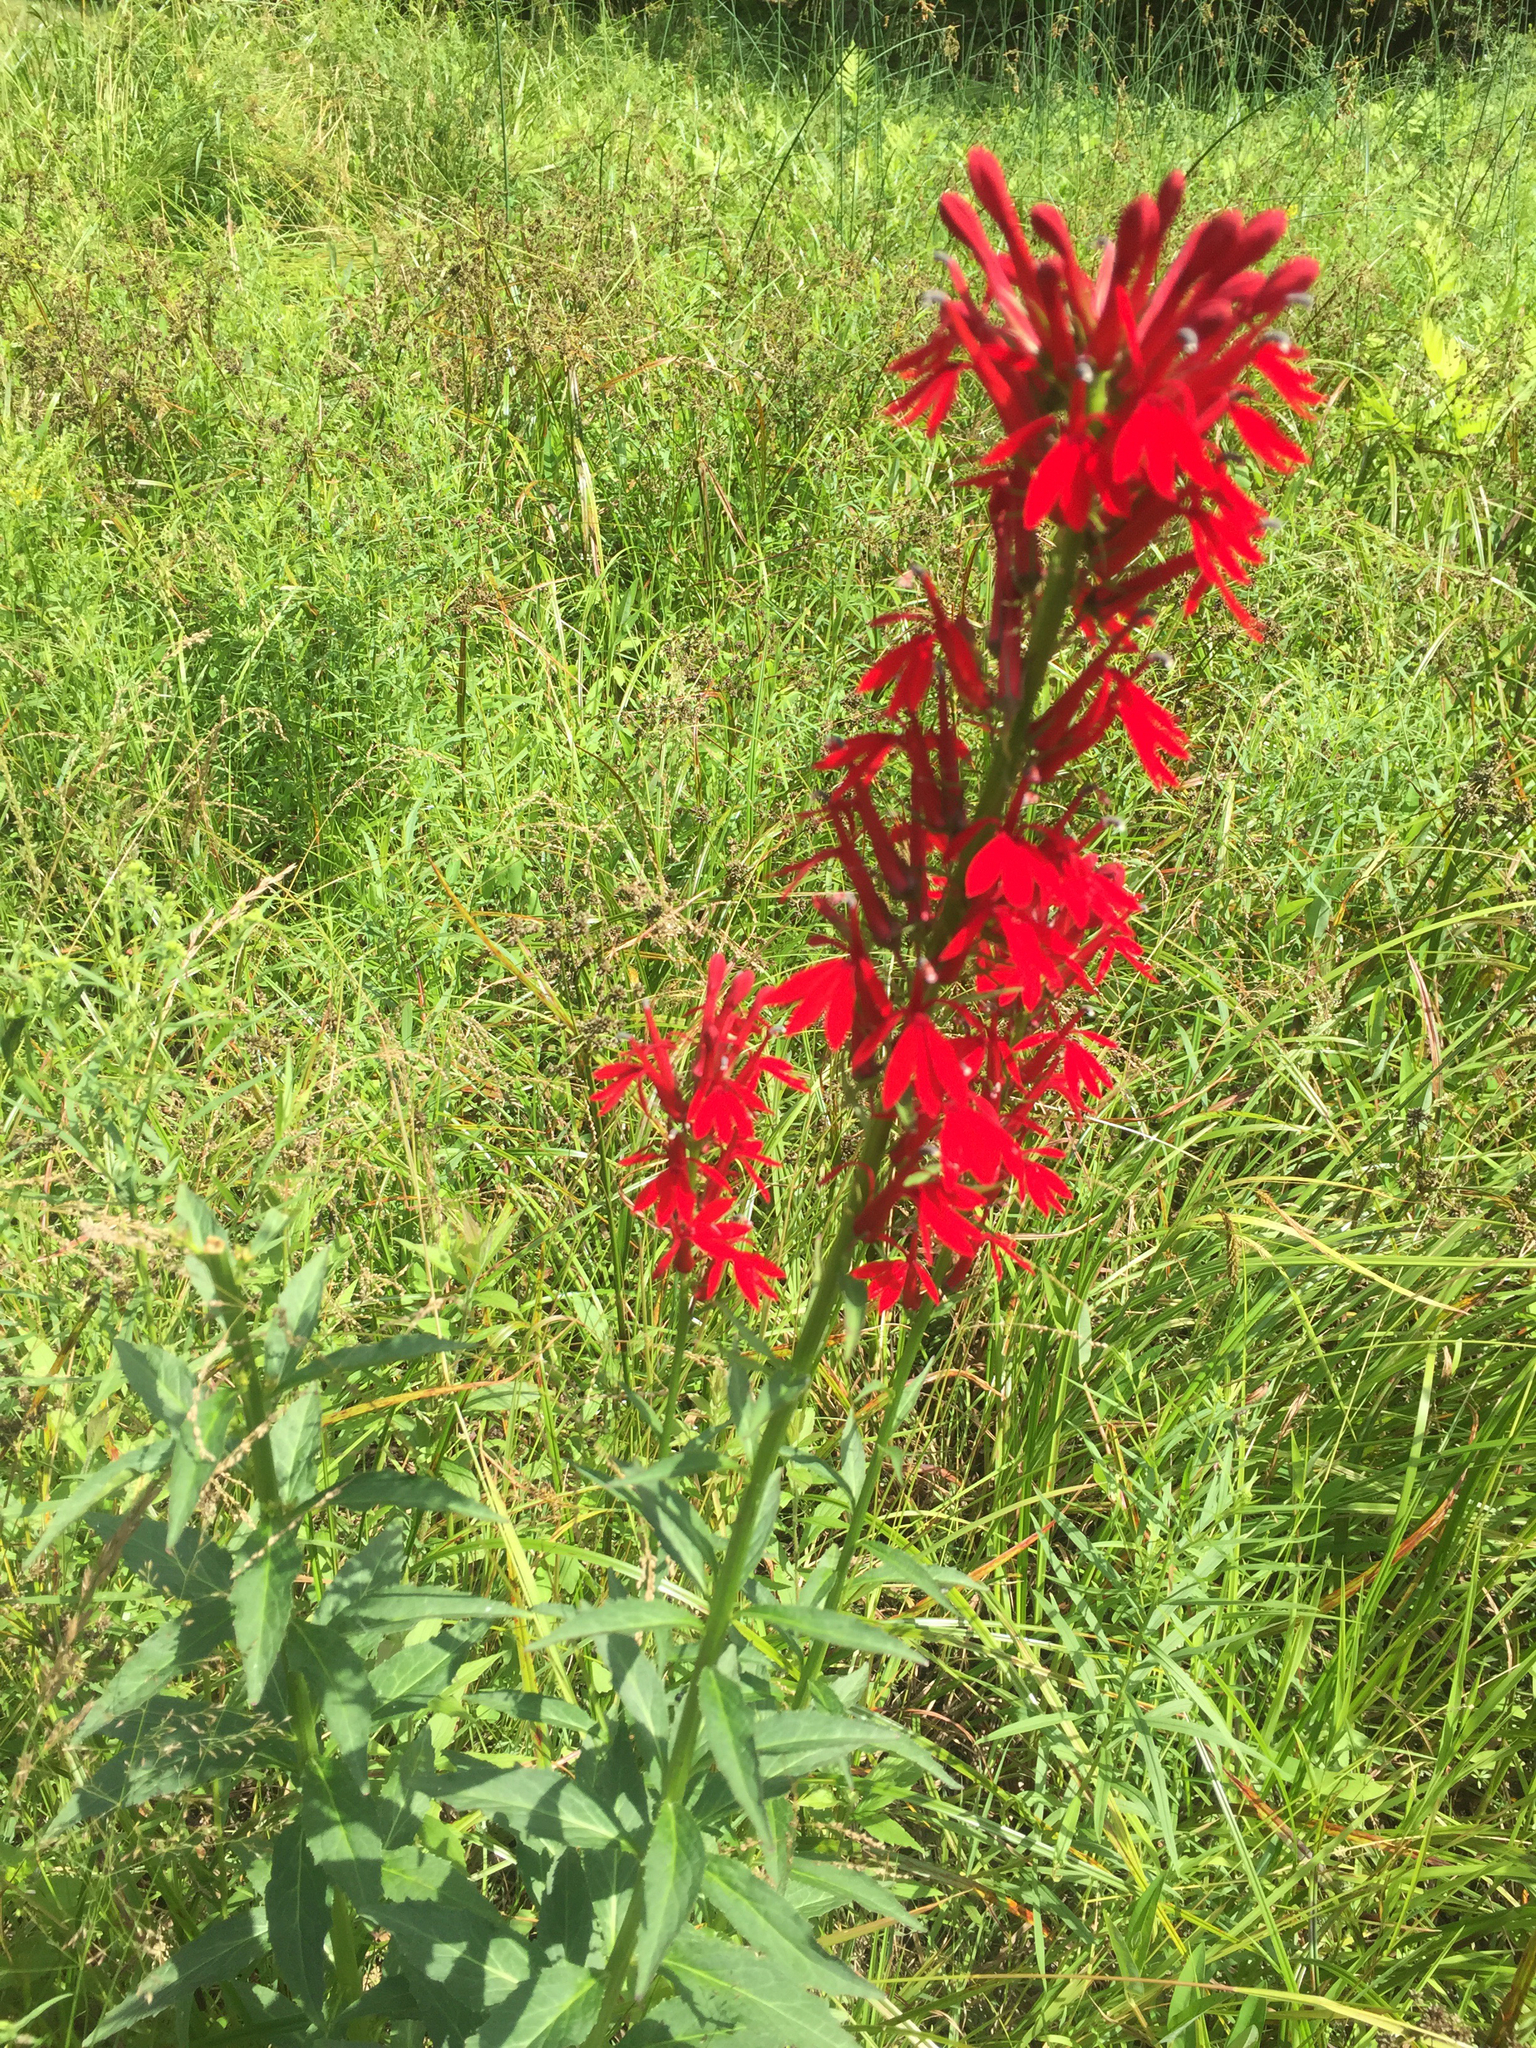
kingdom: Plantae
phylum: Tracheophyta
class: Magnoliopsida
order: Asterales
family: Campanulaceae
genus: Lobelia
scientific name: Lobelia cardinalis
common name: Cardinal flower
